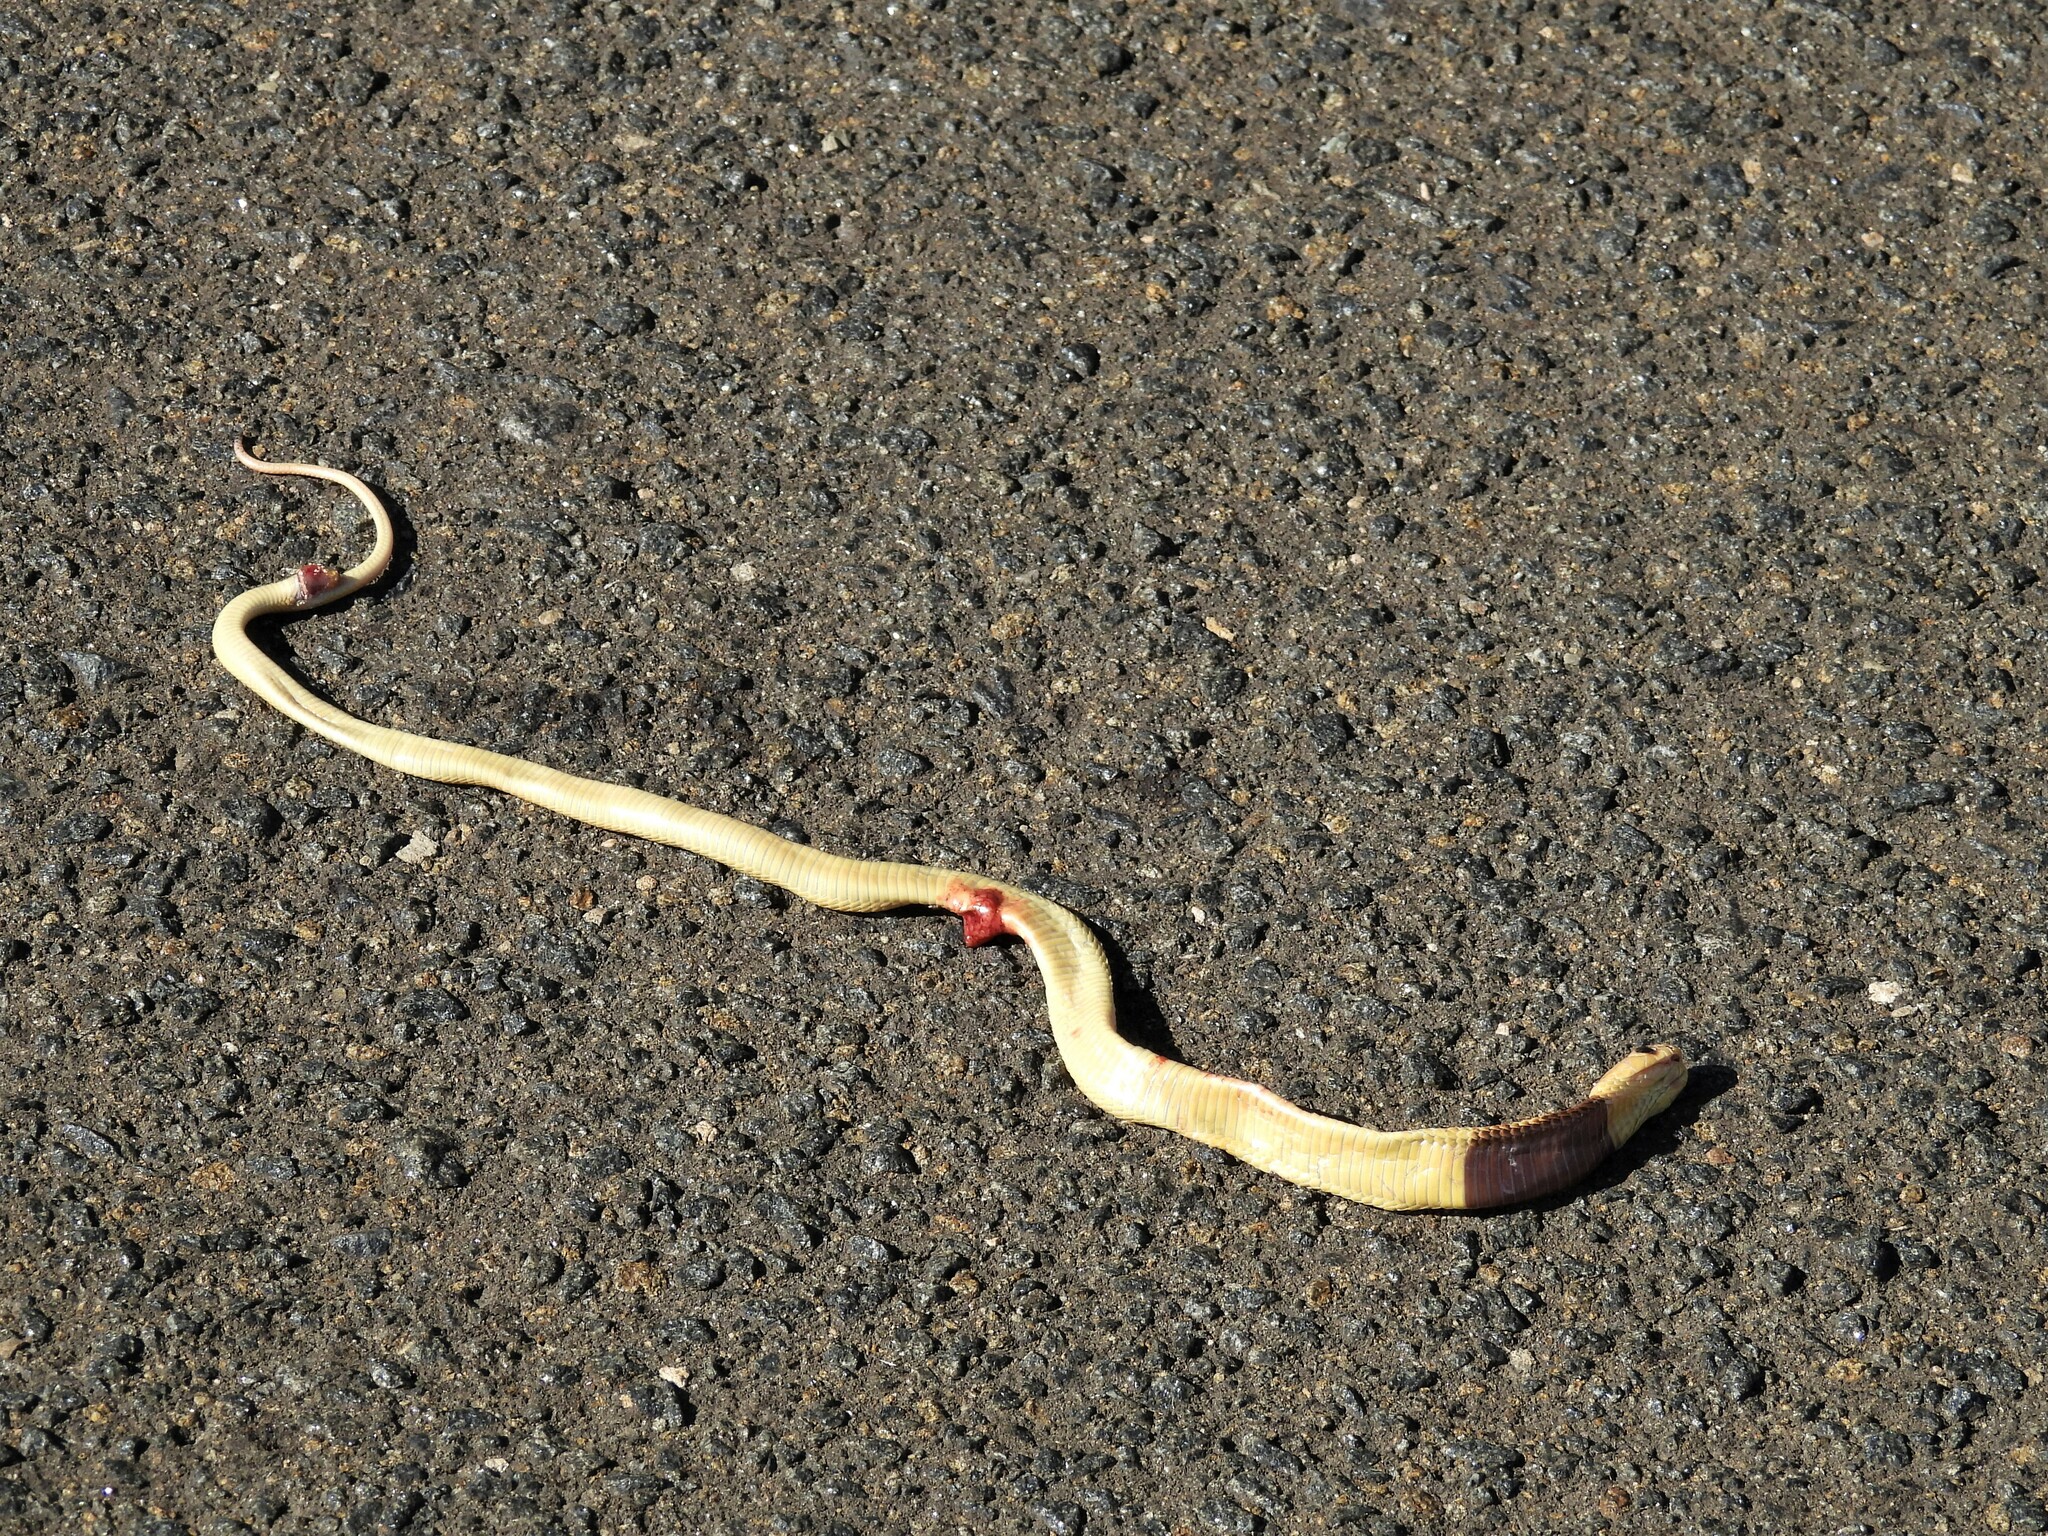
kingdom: Animalia
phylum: Chordata
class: Squamata
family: Elapidae
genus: Naja
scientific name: Naja nivea
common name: Cape cobra
